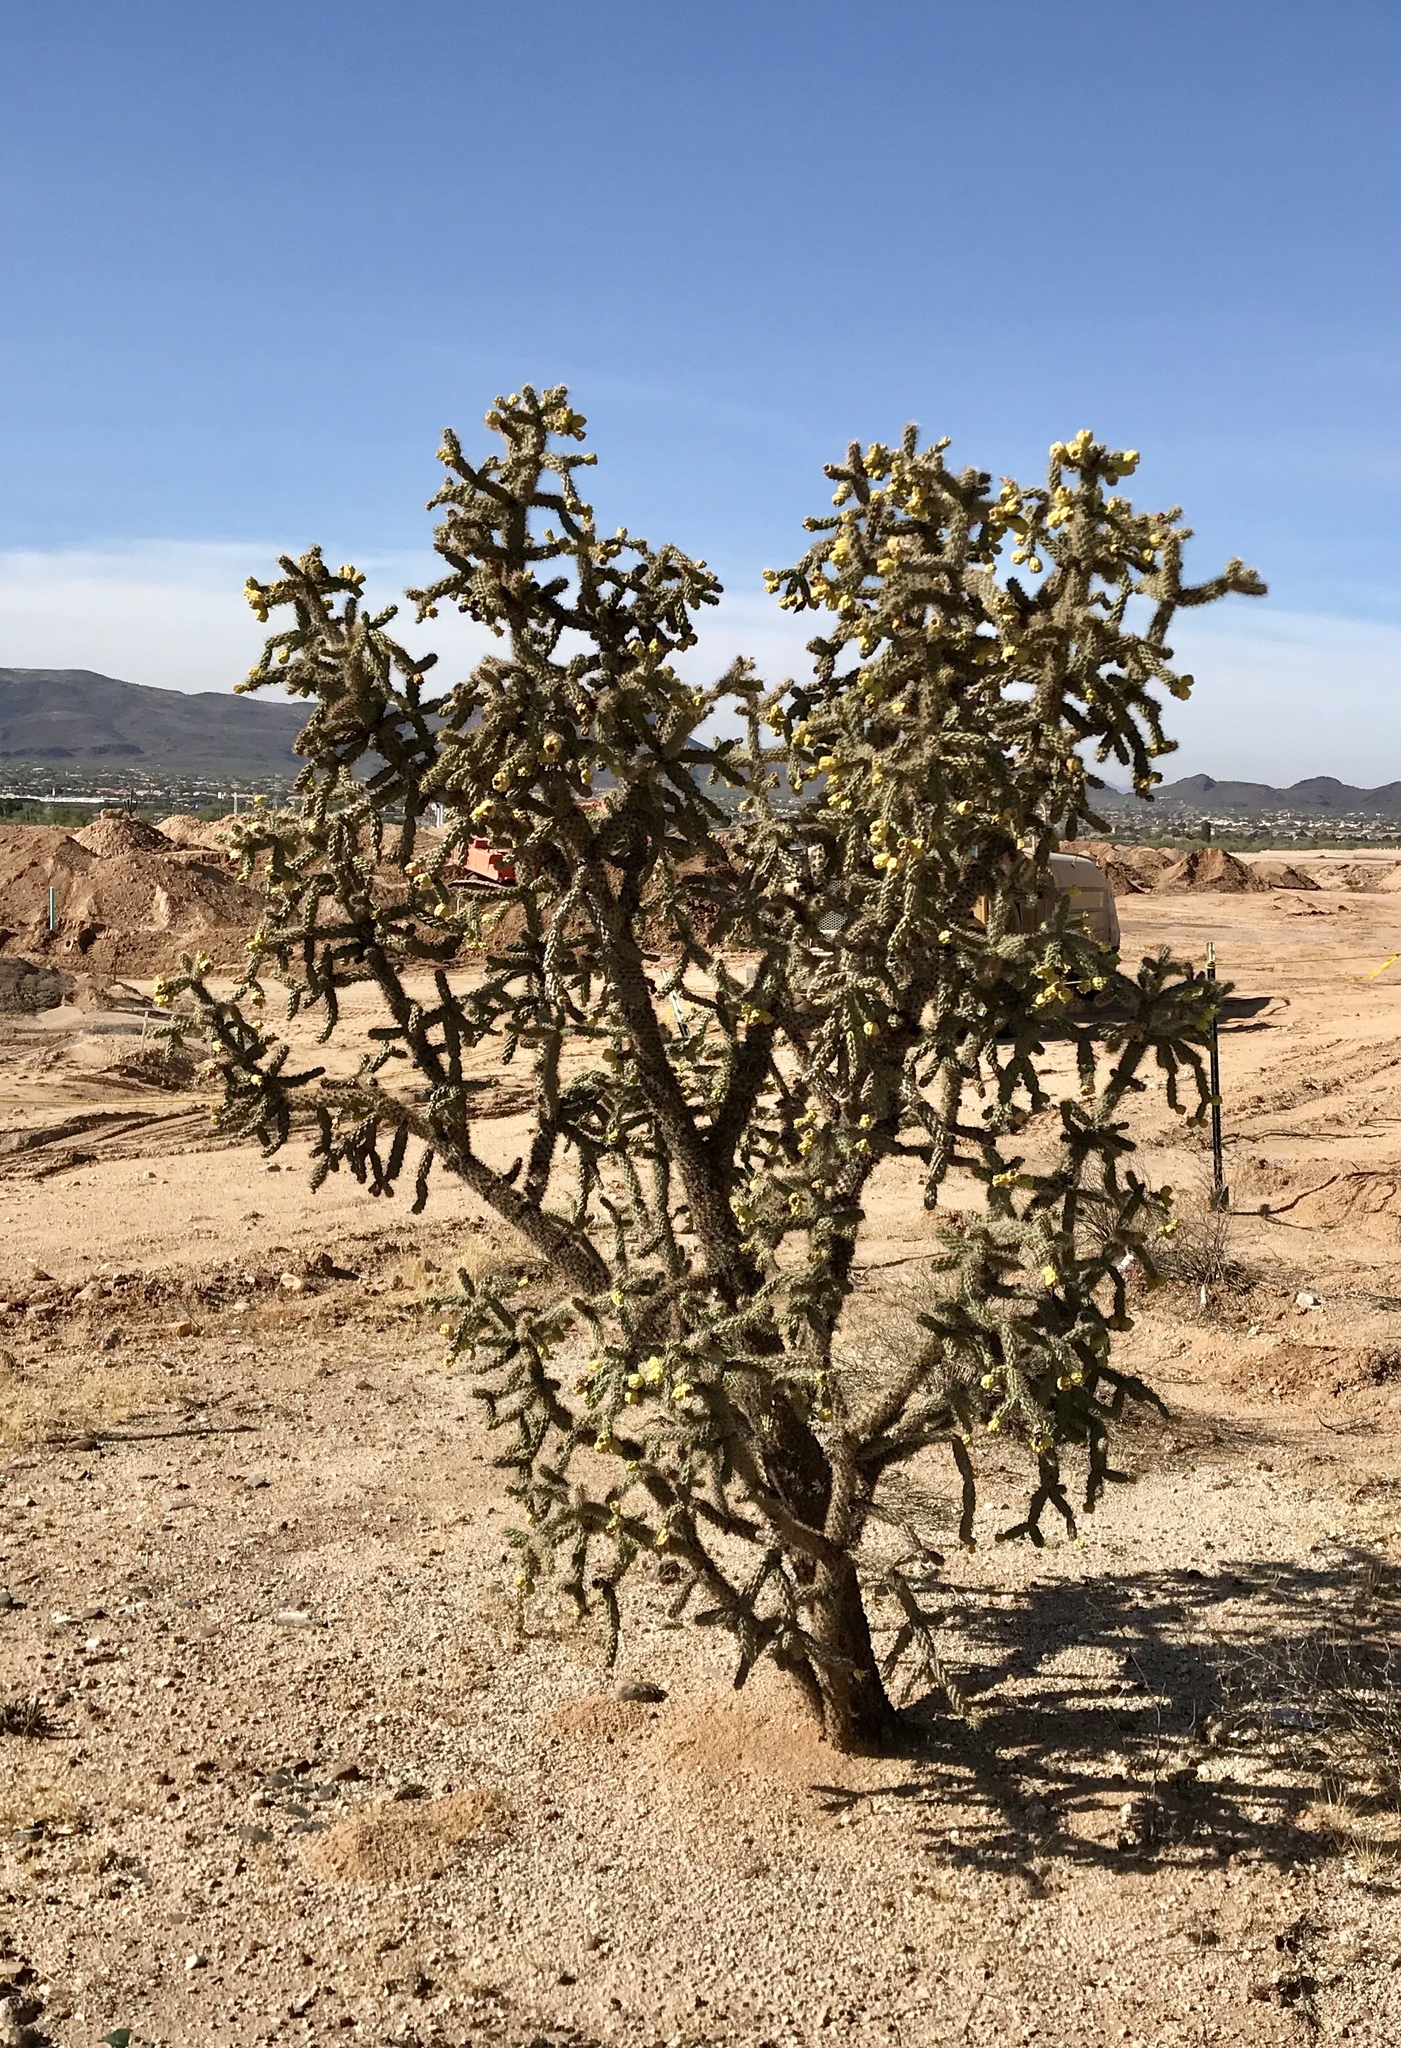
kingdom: Plantae
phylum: Tracheophyta
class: Magnoliopsida
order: Caryophyllales
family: Cactaceae
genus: Cylindropuntia
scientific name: Cylindropuntia imbricata
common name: Candelabrum cactus
